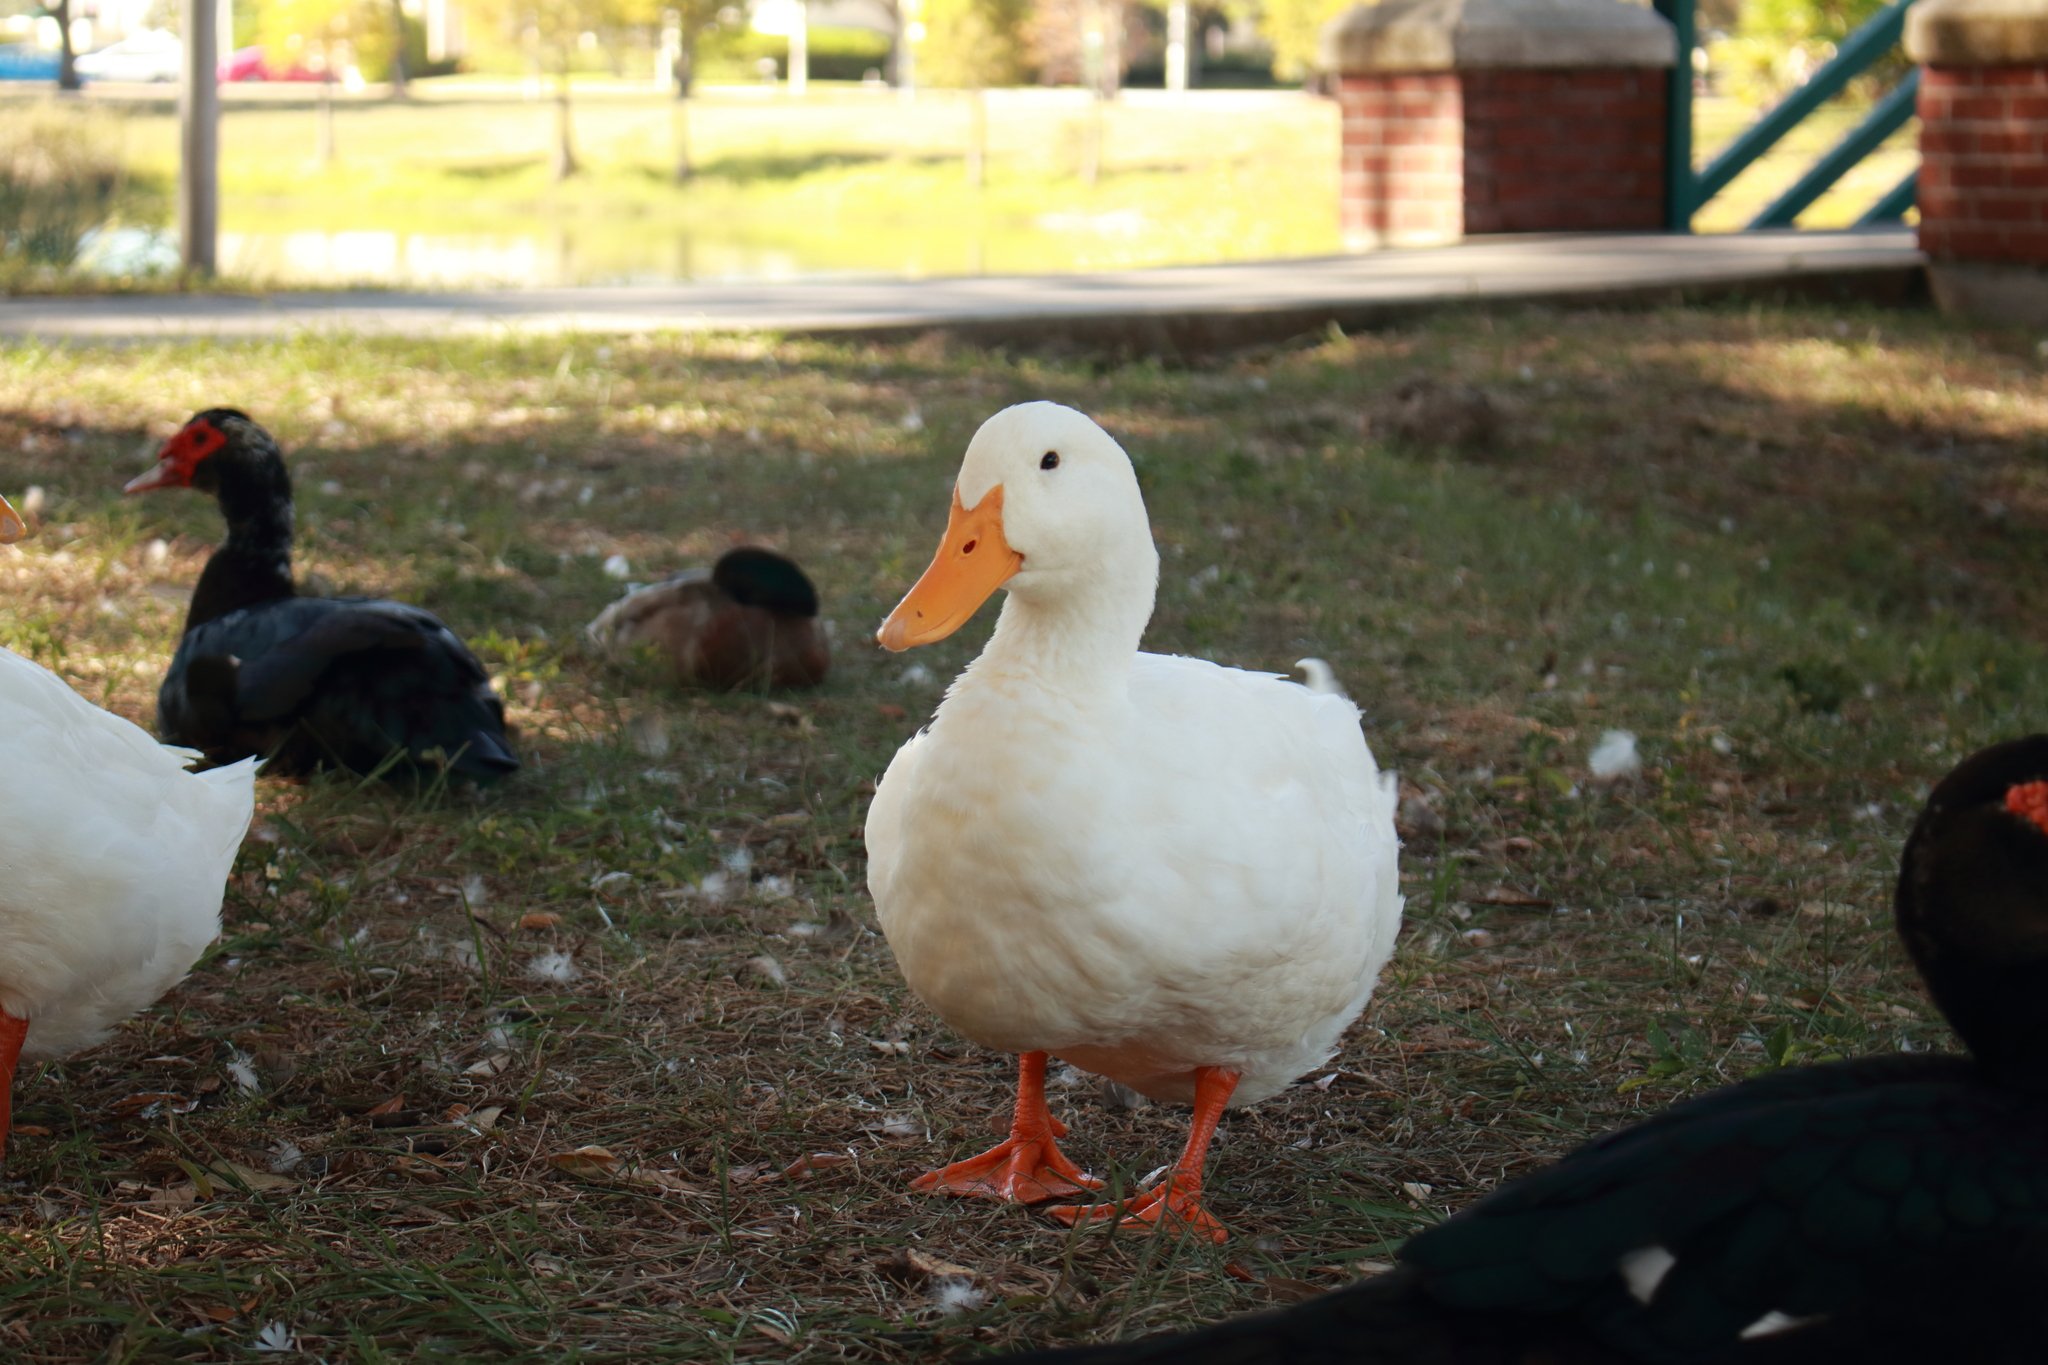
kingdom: Animalia
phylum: Chordata
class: Aves
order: Anseriformes
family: Anatidae
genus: Anas
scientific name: Anas platyrhynchos
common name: Mallard
